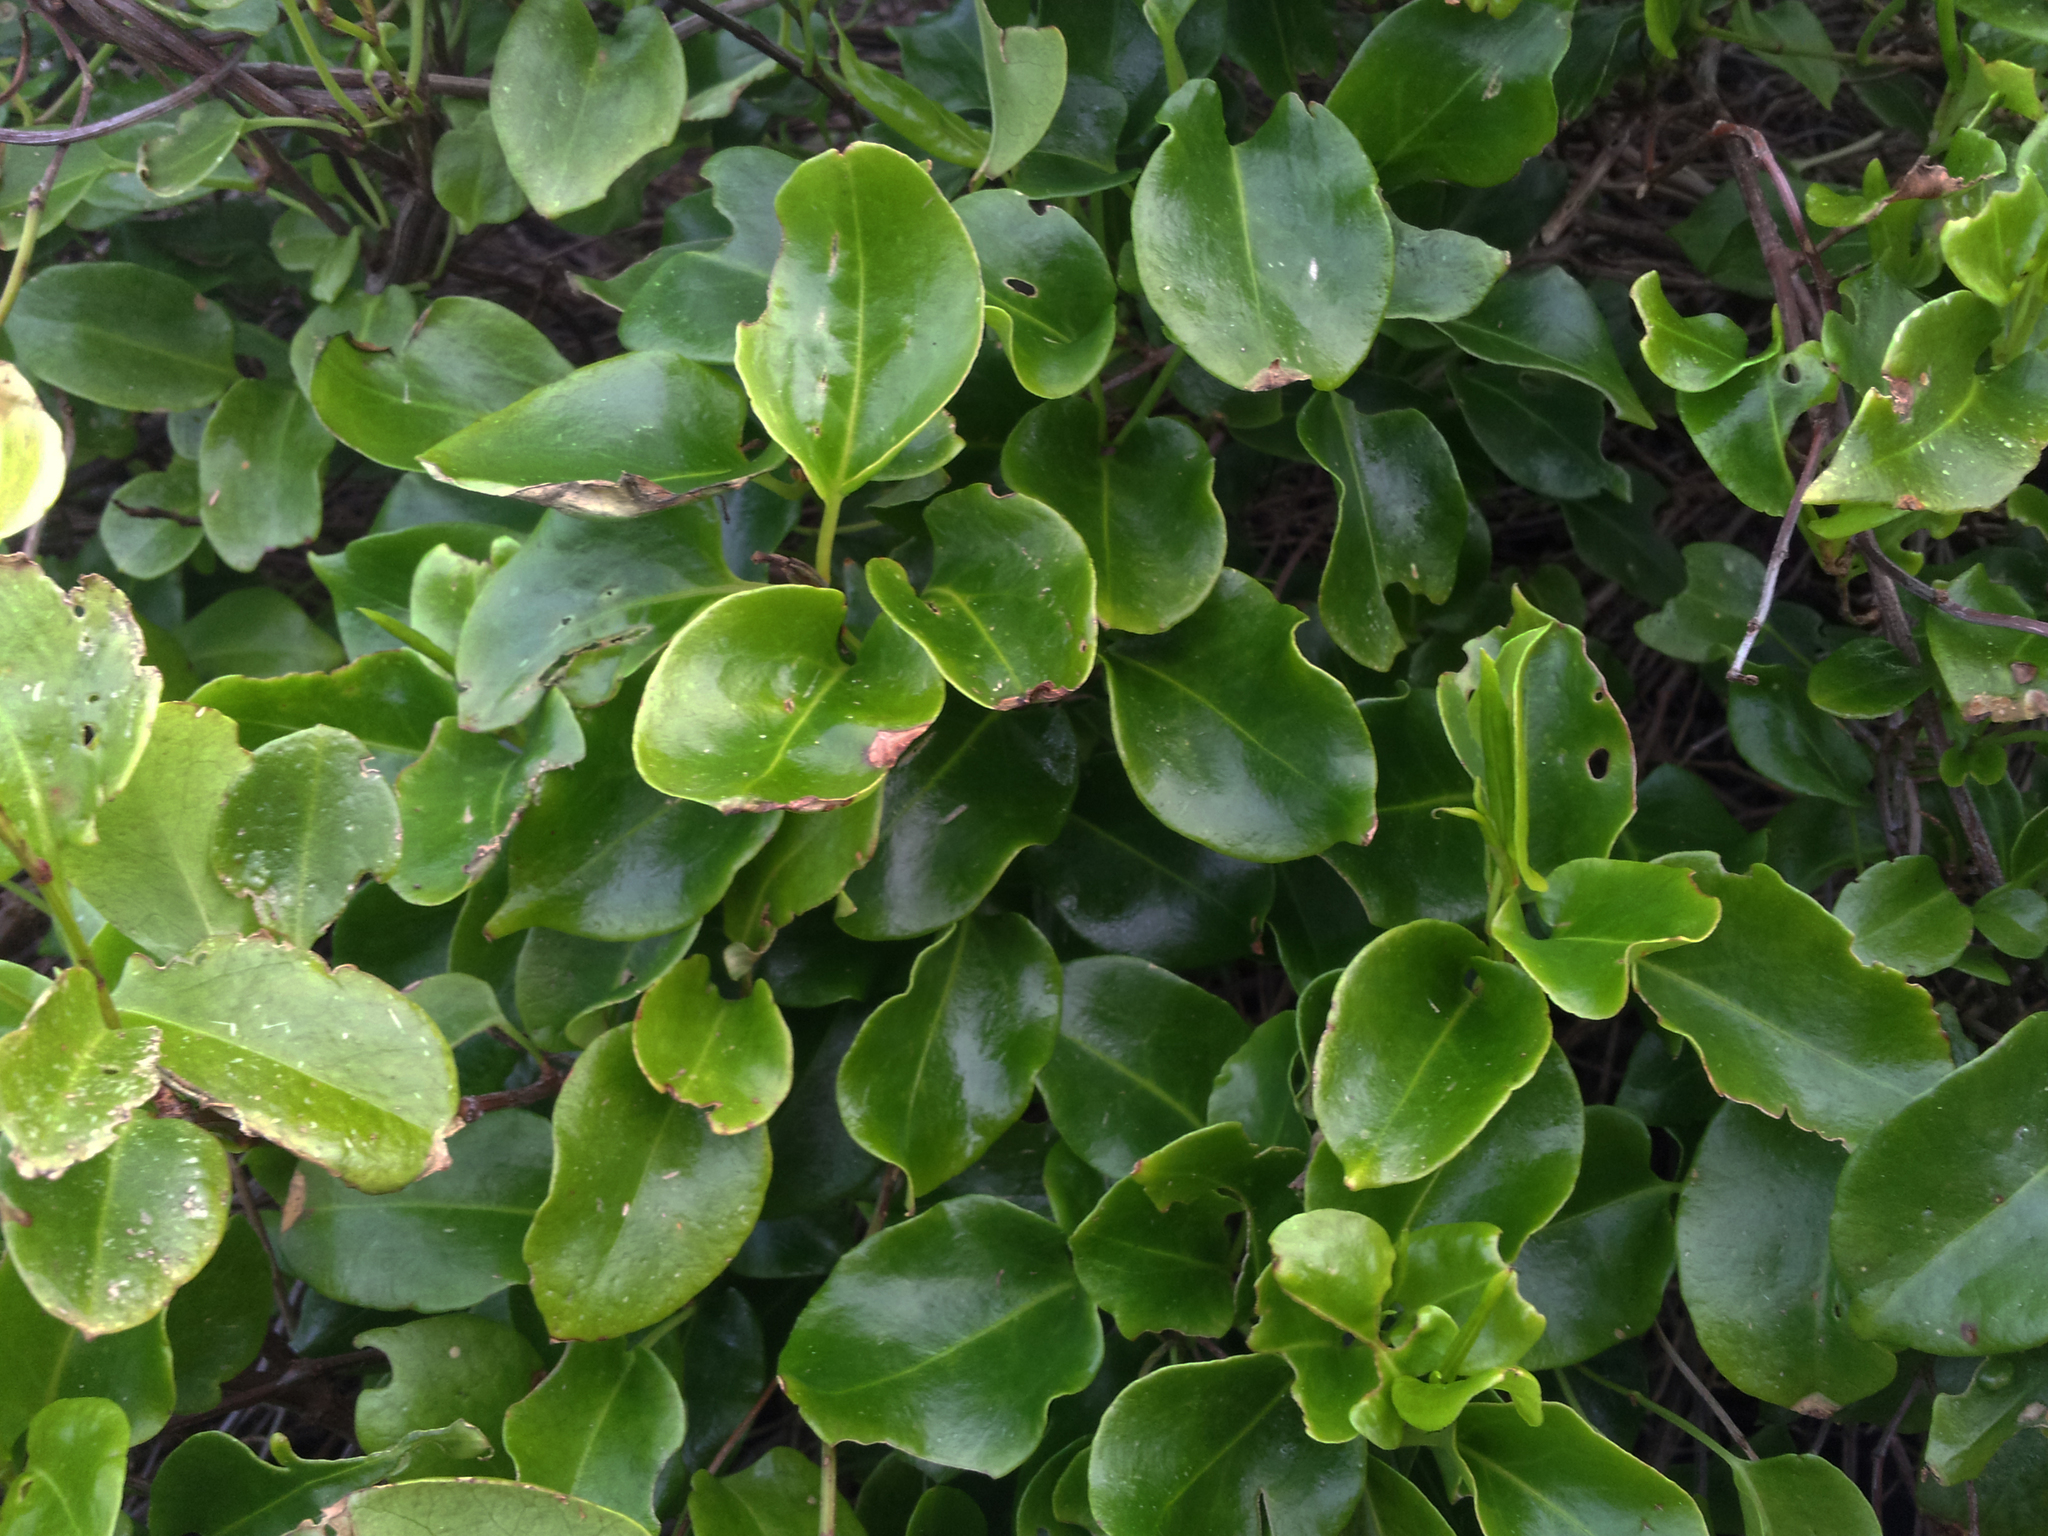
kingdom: Plantae
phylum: Tracheophyta
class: Magnoliopsida
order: Caryophyllales
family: Polygonaceae
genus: Muehlenbeckia
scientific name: Muehlenbeckia australis
